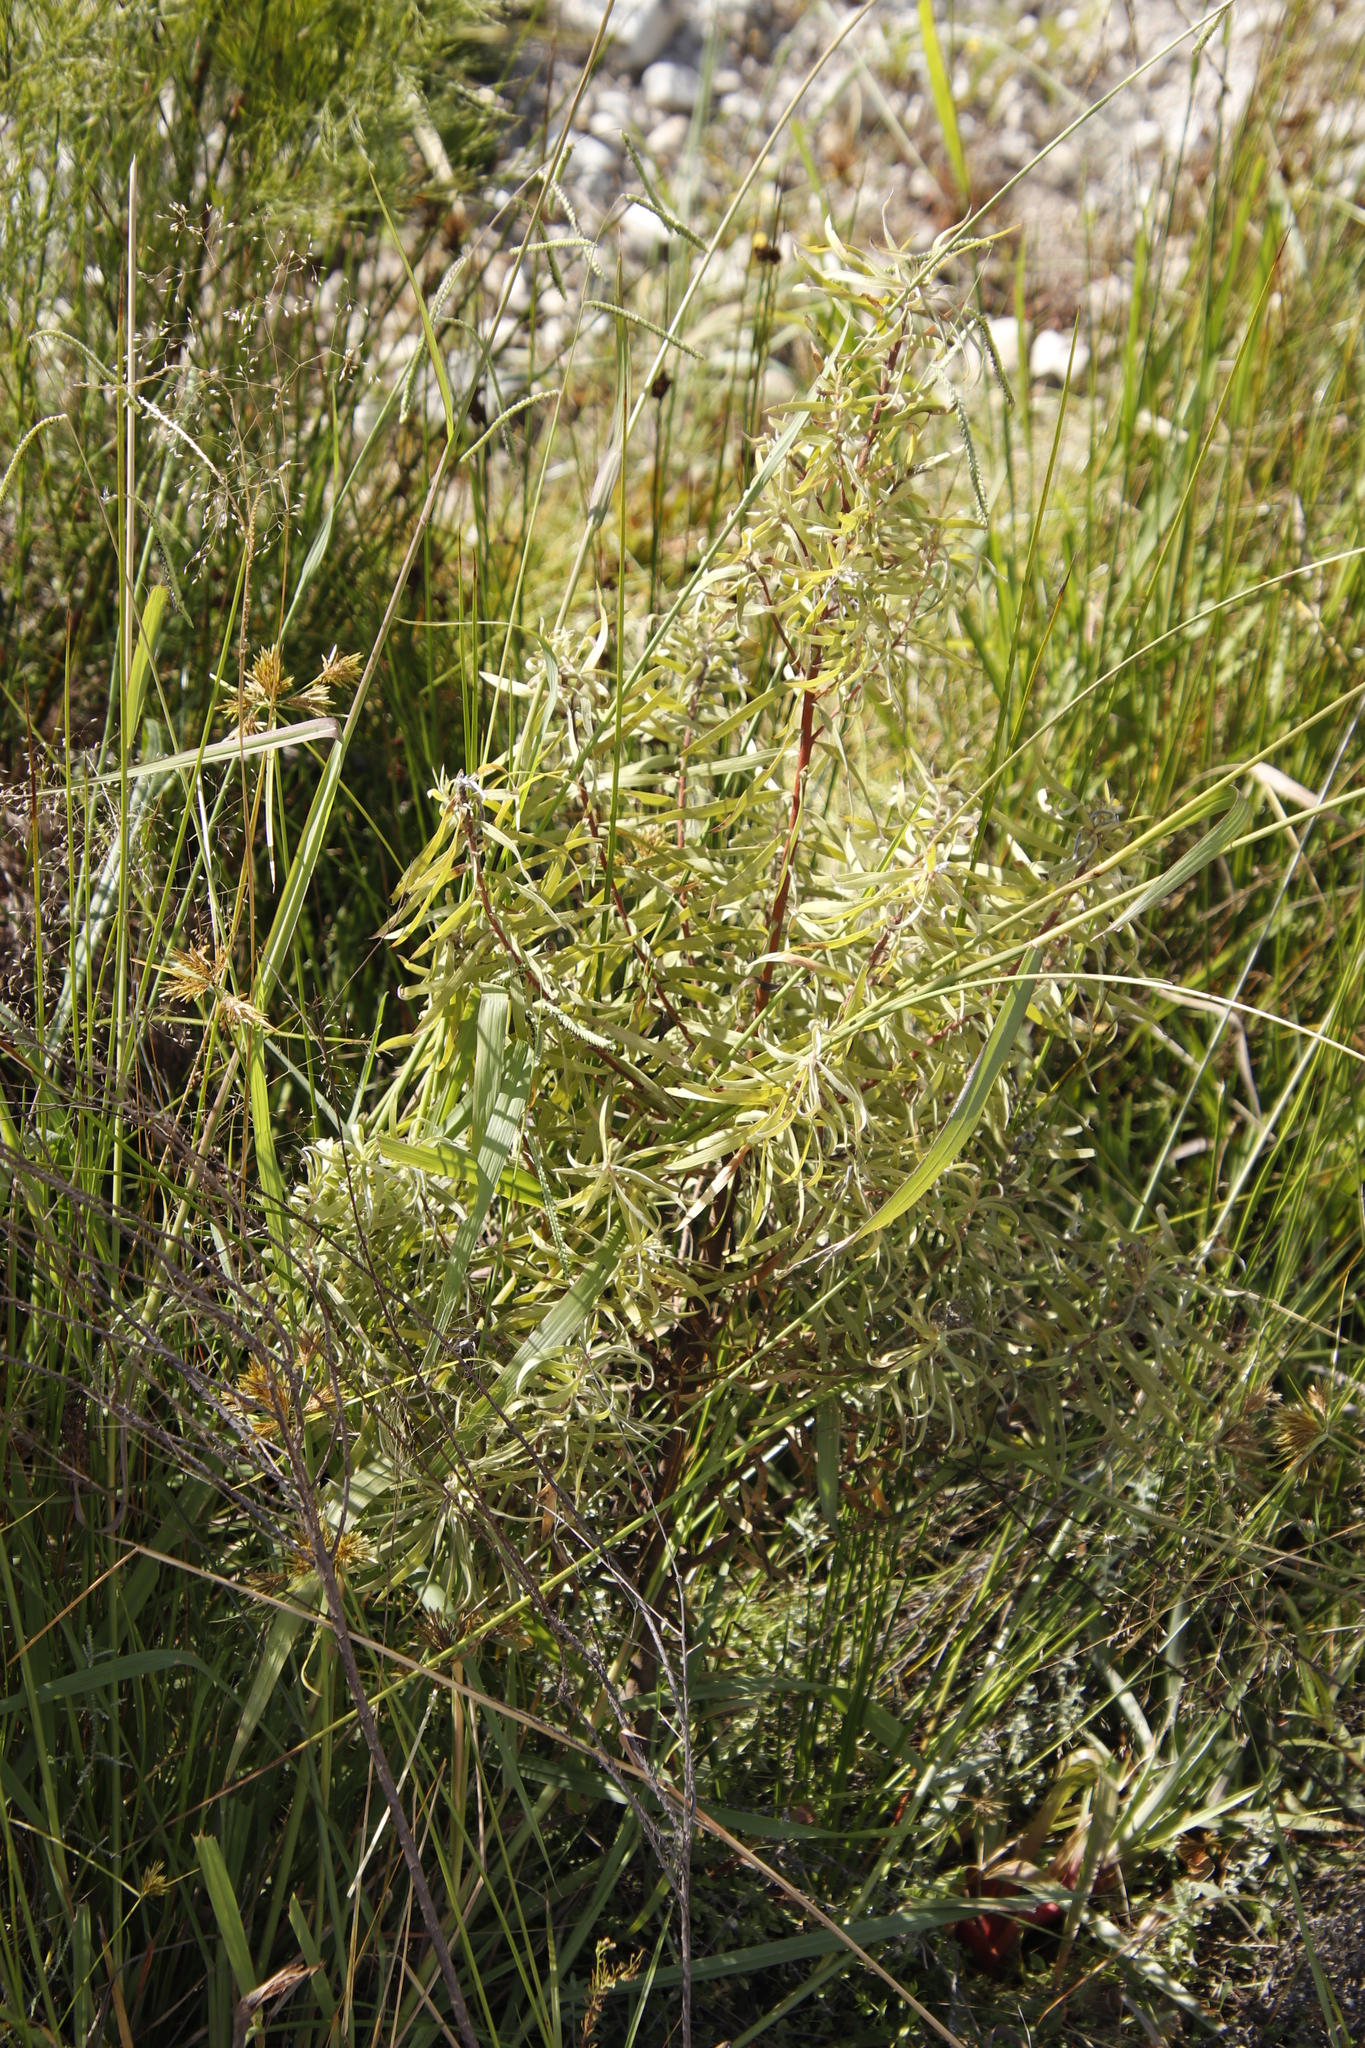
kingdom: Plantae
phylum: Tracheophyta
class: Magnoliopsida
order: Proteales
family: Proteaceae
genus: Leucadendron
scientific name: Leucadendron salicifolium
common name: Common stream conebush
